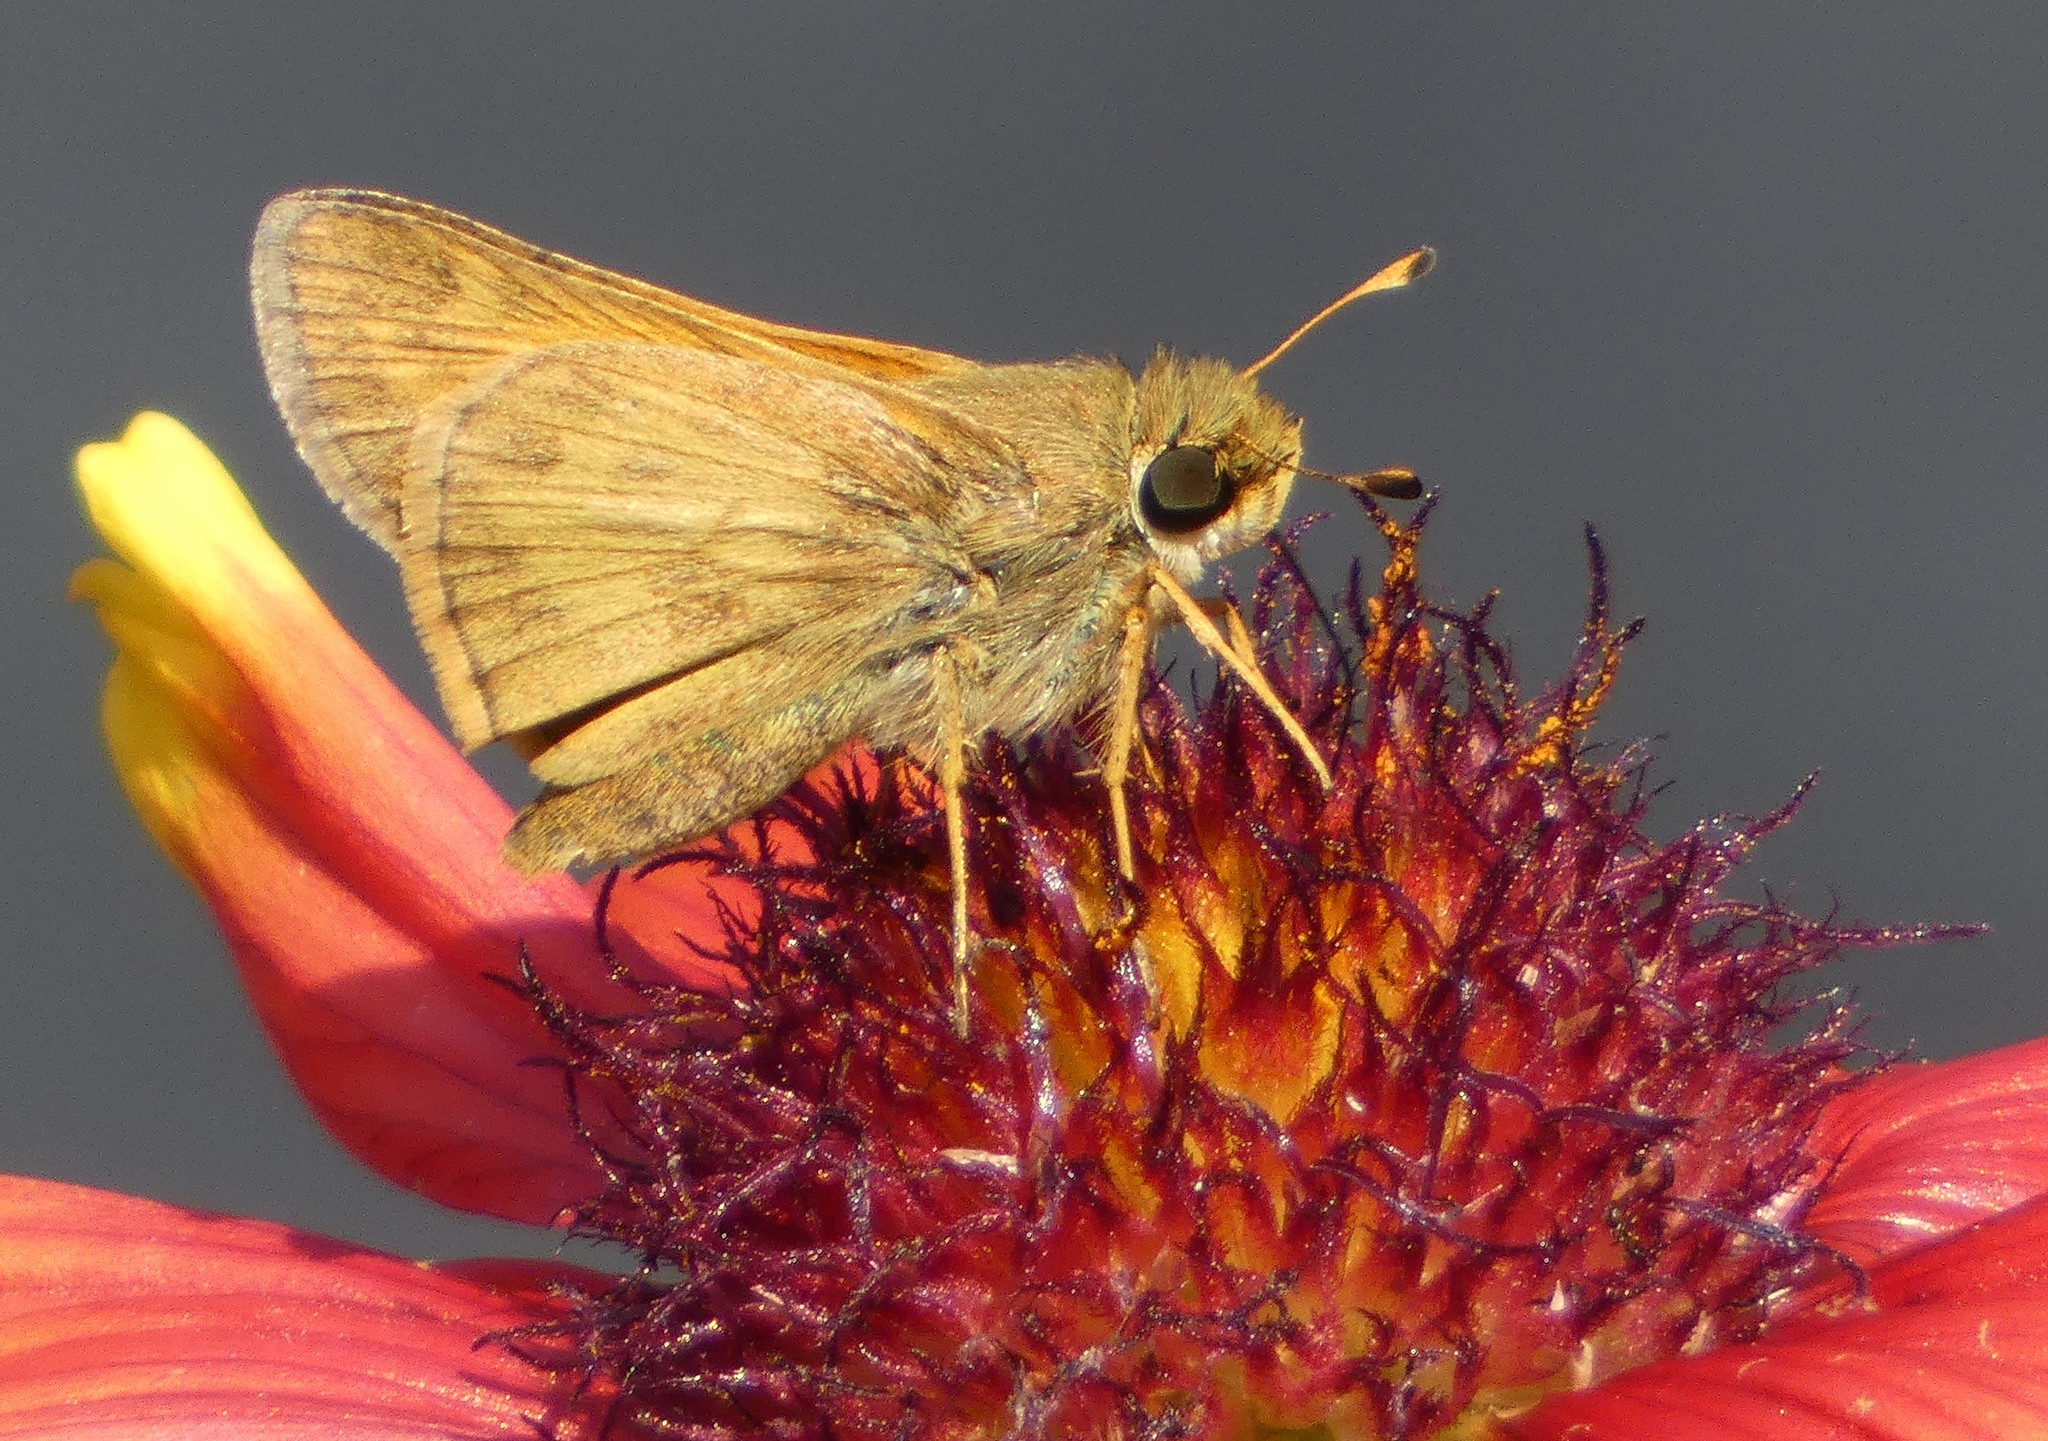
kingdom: Animalia
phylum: Arthropoda
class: Insecta
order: Lepidoptera
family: Hesperiidae
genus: Atalopedes
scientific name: Atalopedes
